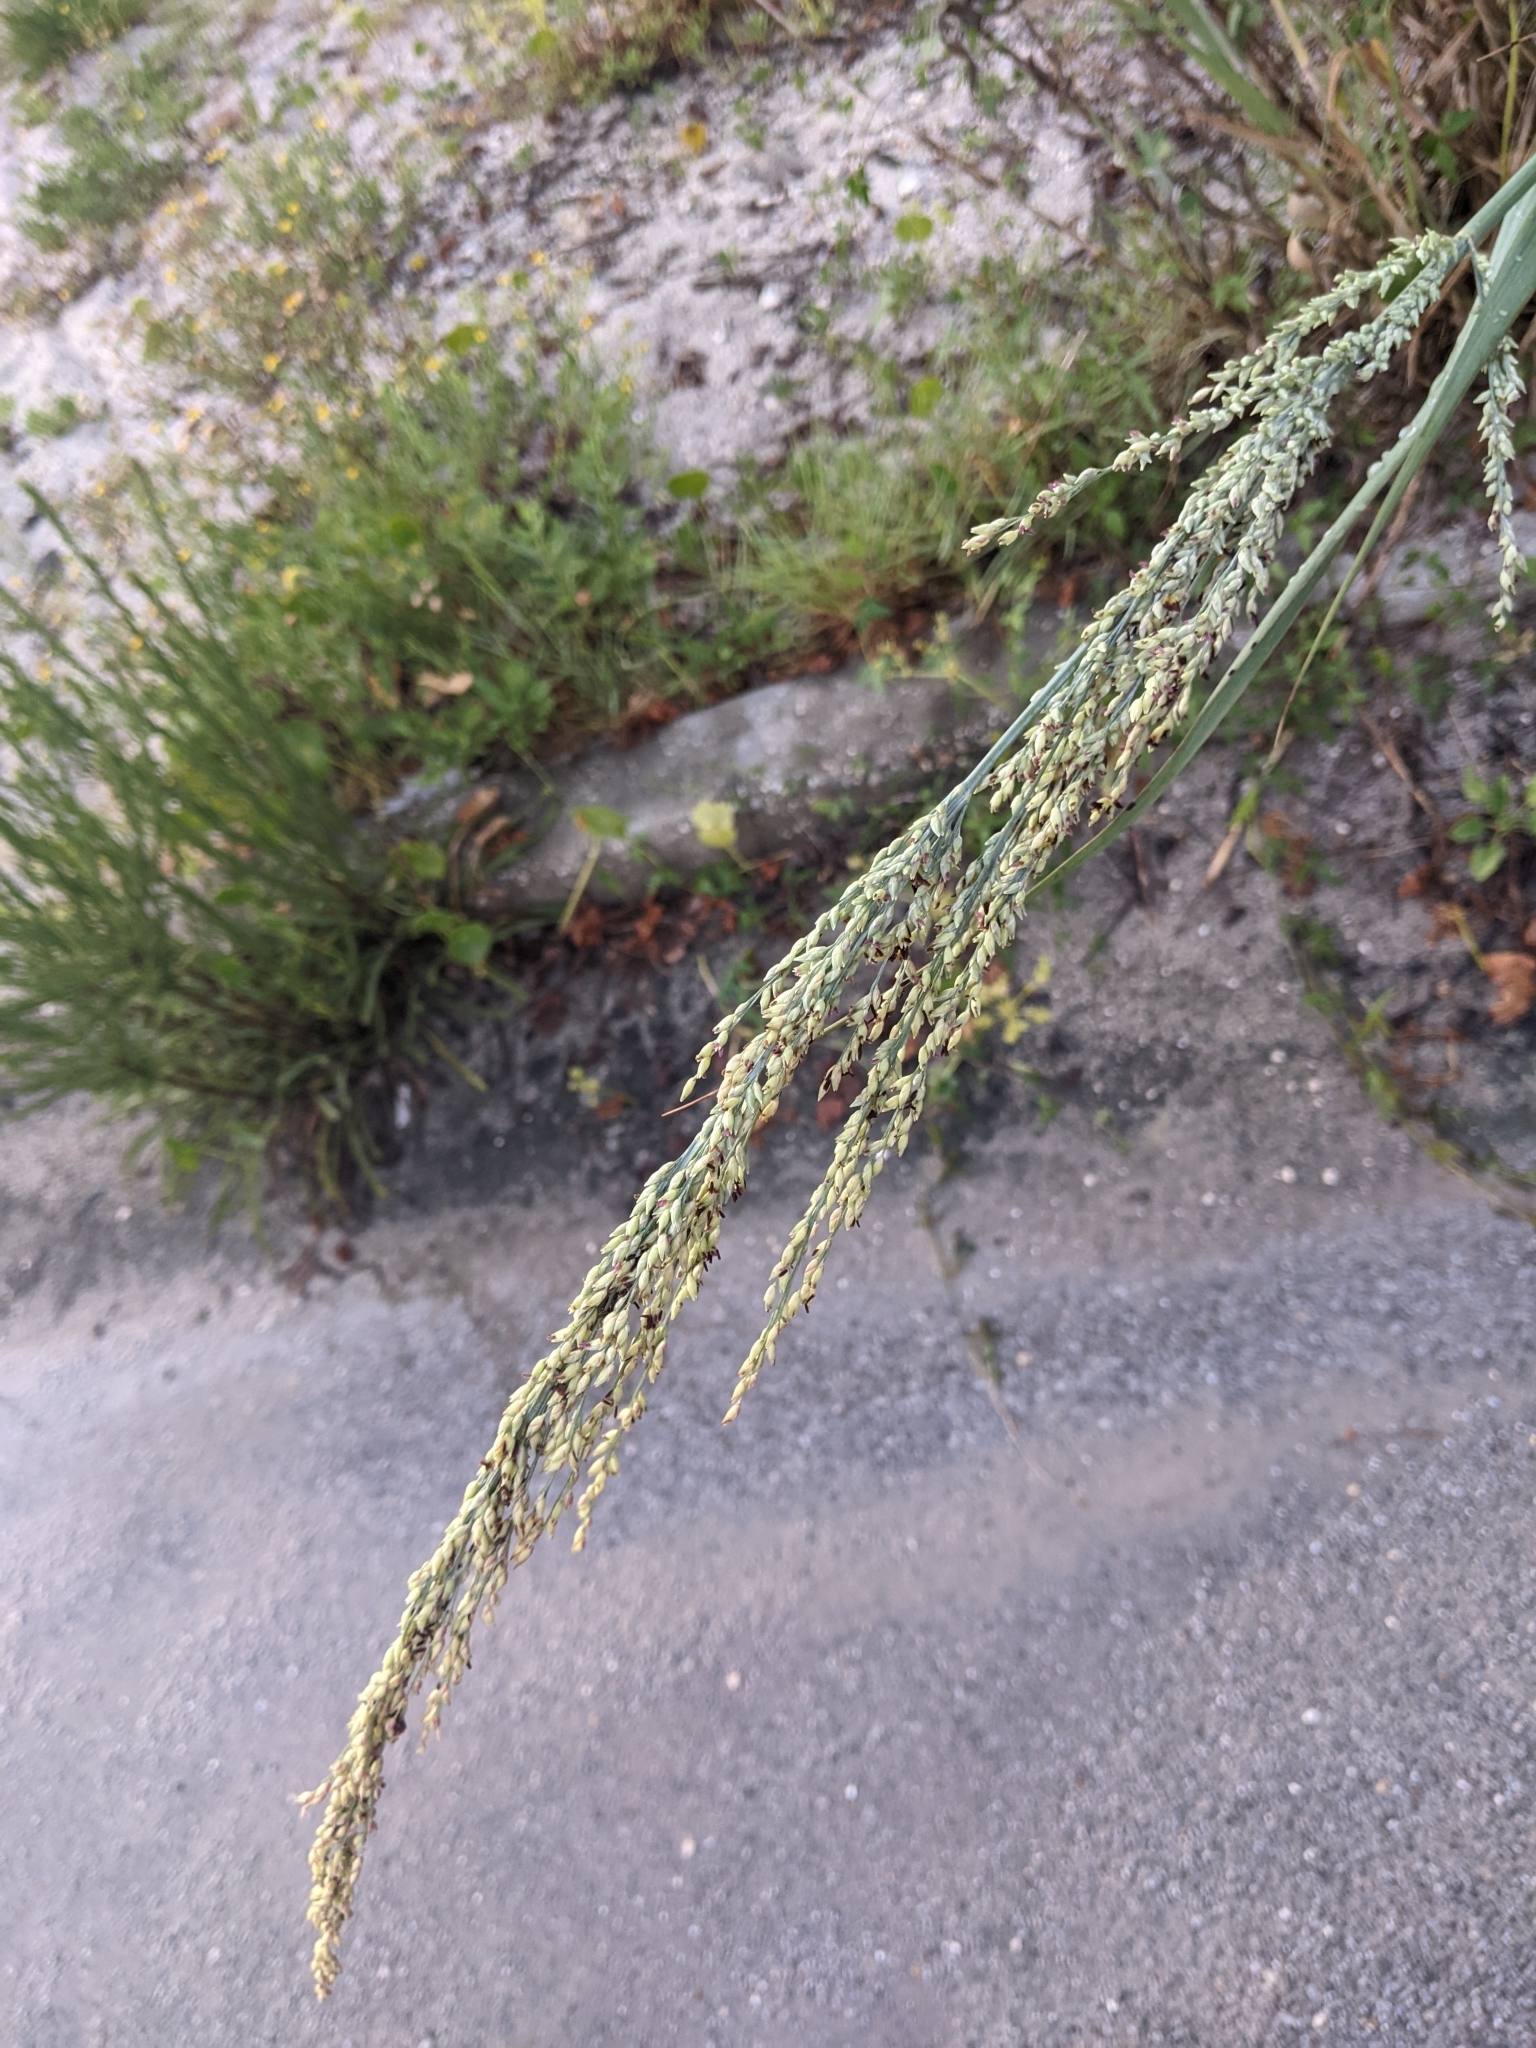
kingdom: Plantae
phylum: Tracheophyta
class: Liliopsida
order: Poales
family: Poaceae
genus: Panicum
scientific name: Panicum amarum
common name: Bitter panicum
